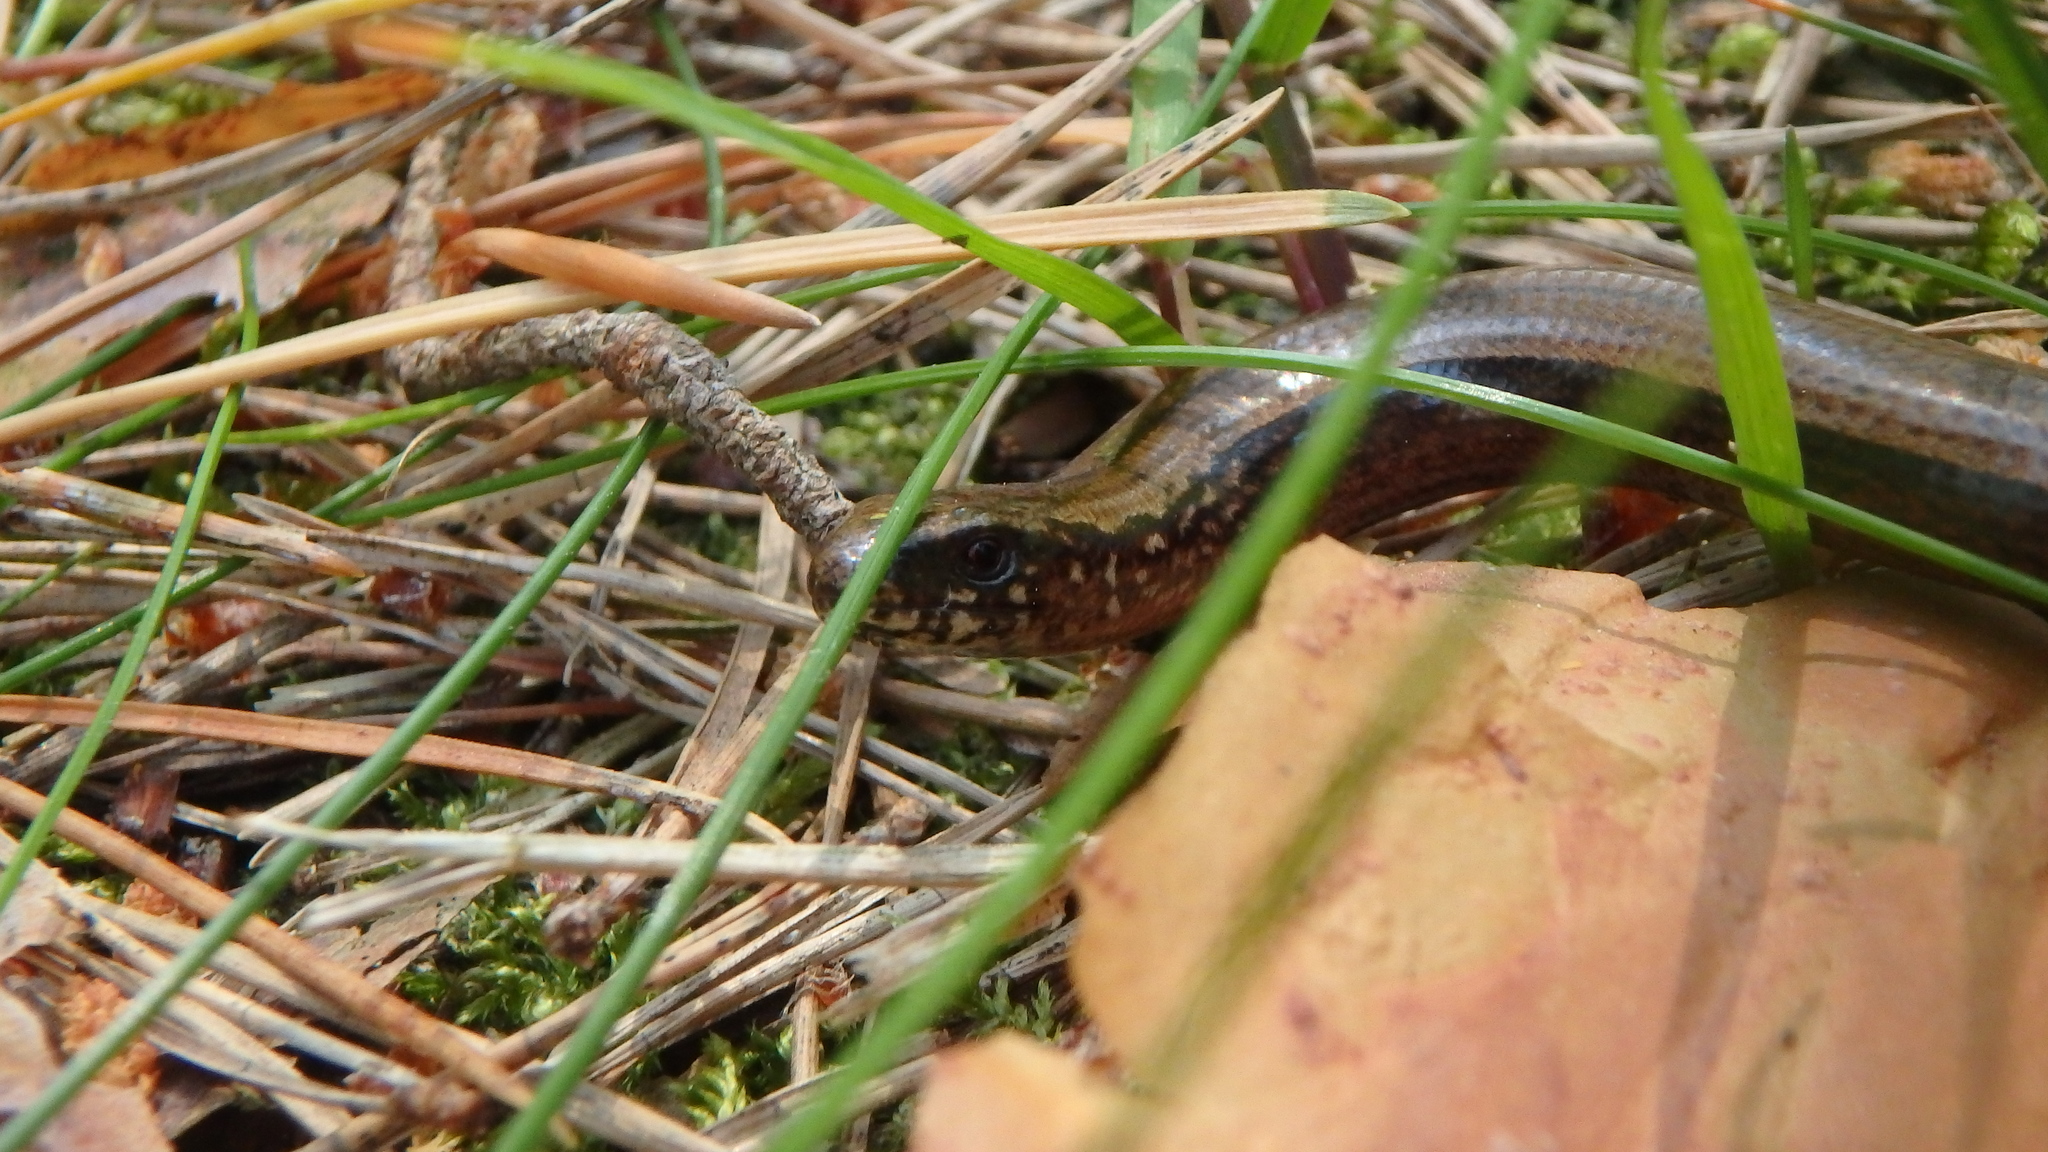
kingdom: Animalia
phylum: Chordata
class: Squamata
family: Anguidae
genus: Anguis
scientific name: Anguis fragilis
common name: Slow worm
